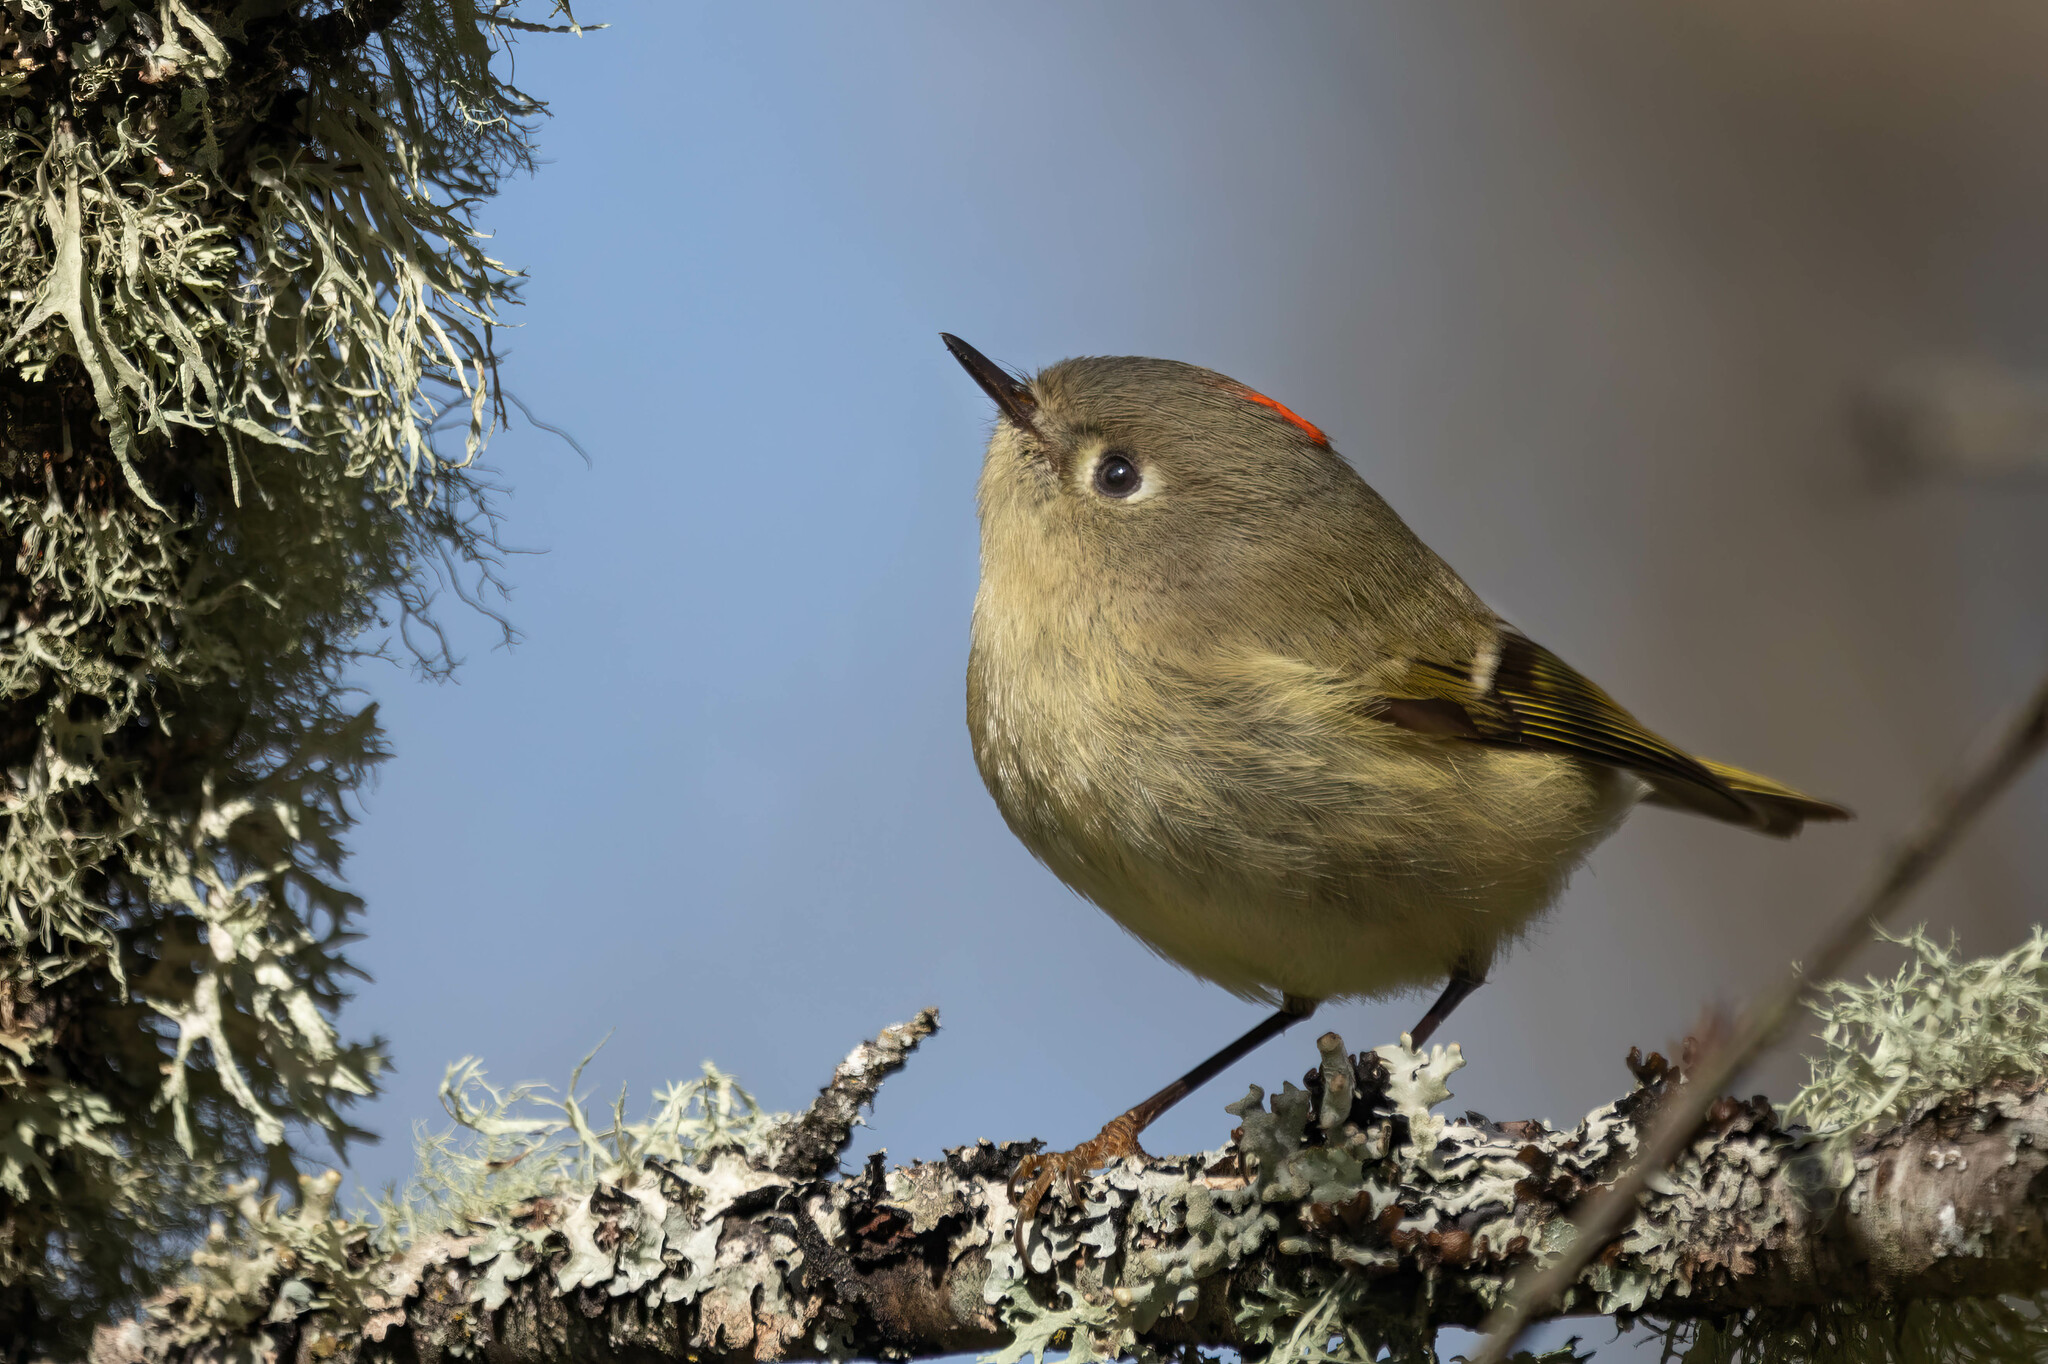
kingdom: Animalia
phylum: Chordata
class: Aves
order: Passeriformes
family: Regulidae
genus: Regulus
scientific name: Regulus calendula
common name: Ruby-crowned kinglet
